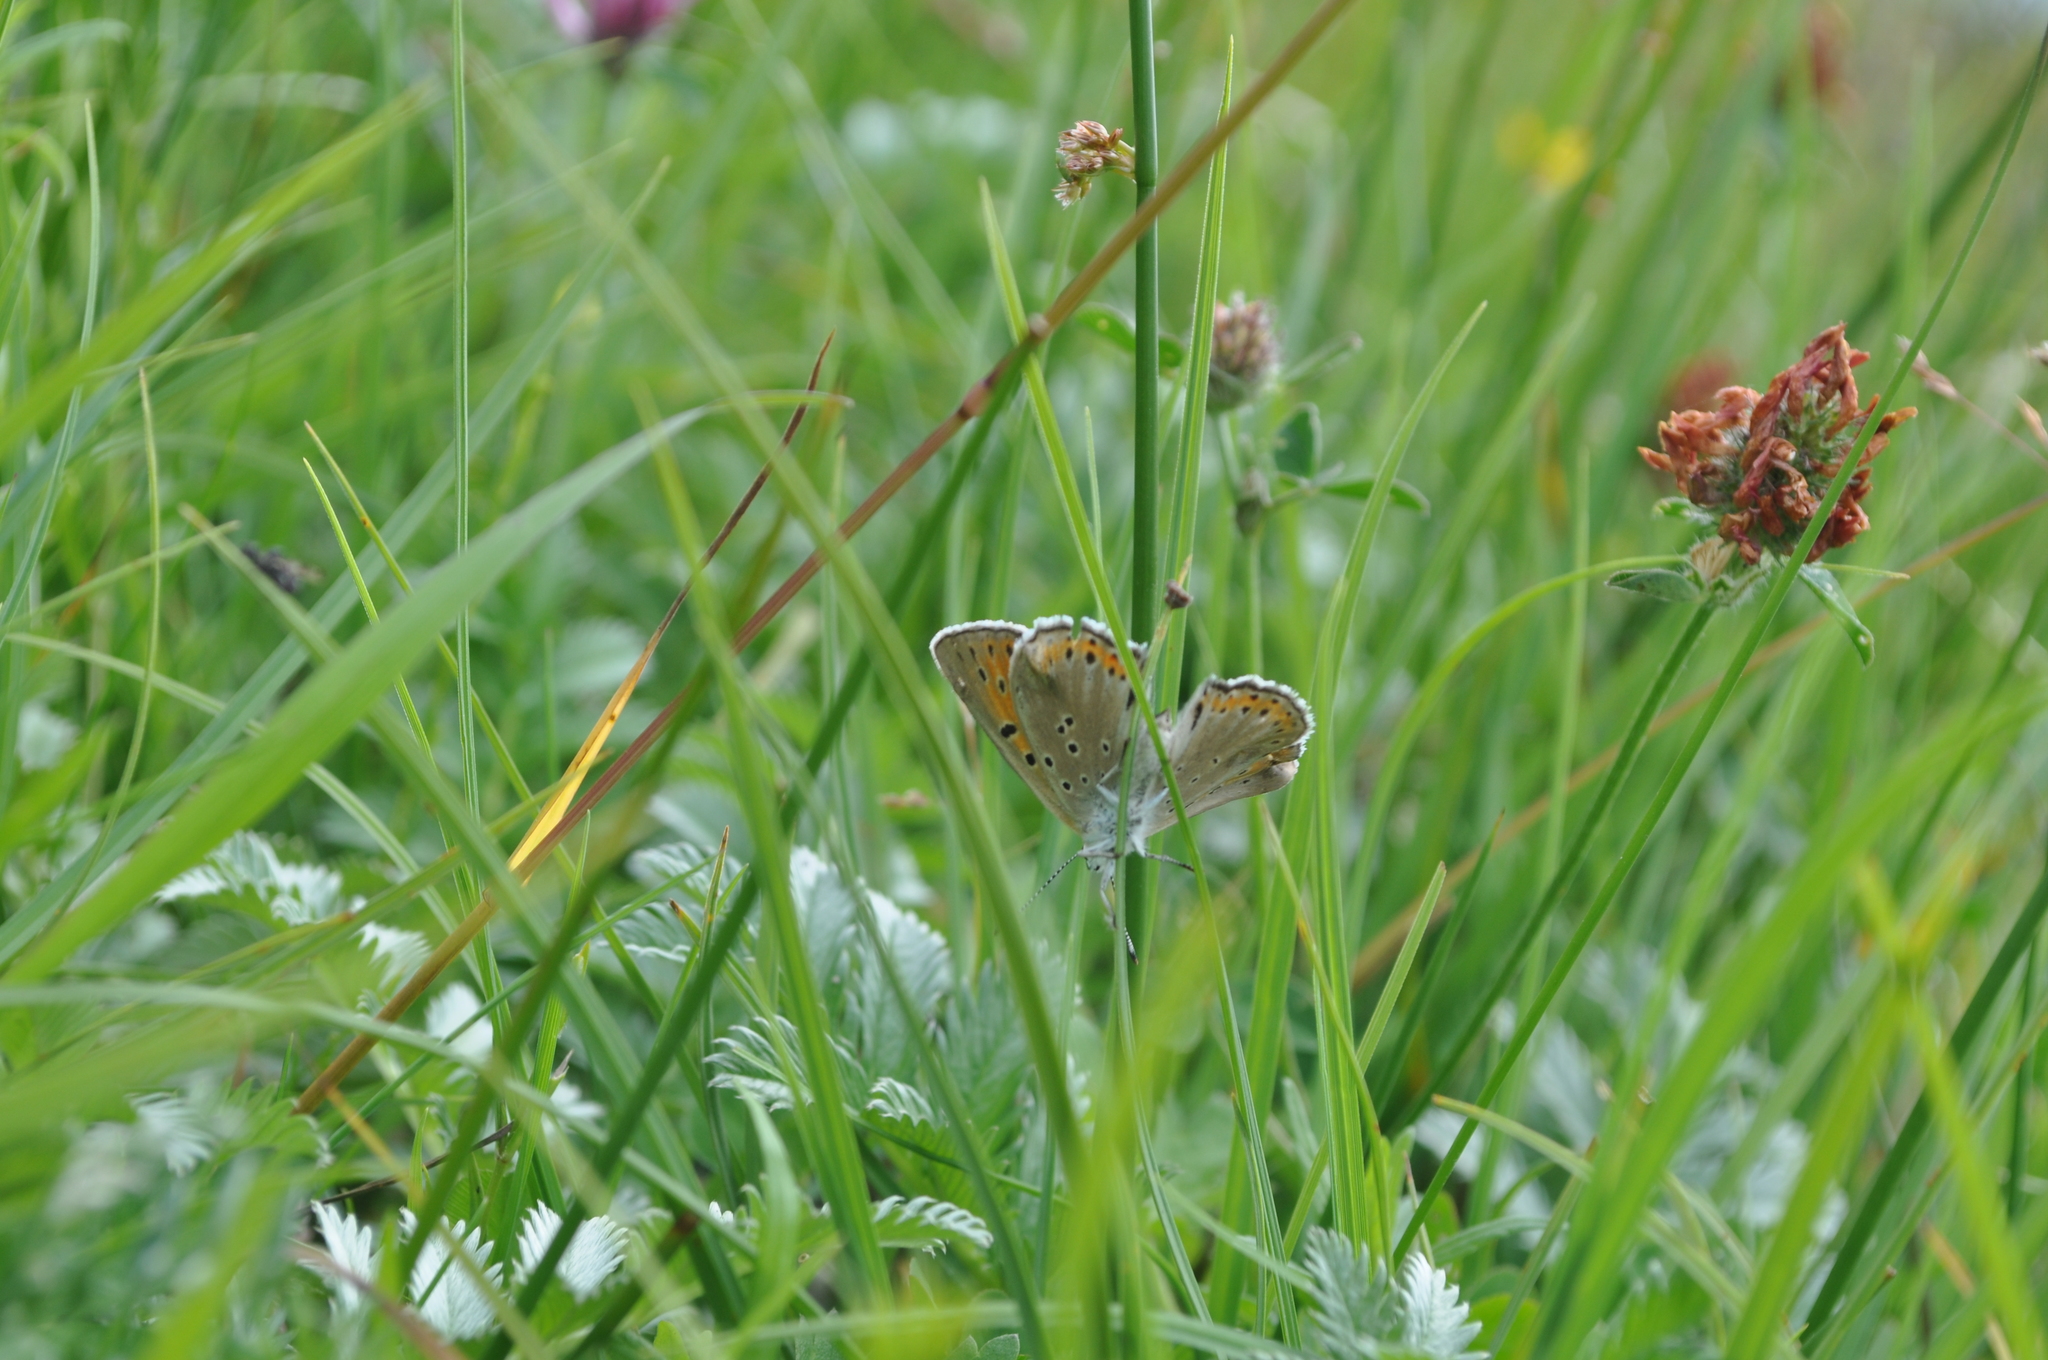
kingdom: Animalia
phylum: Arthropoda
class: Insecta
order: Lepidoptera
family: Lycaenidae
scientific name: Lycaenidae
